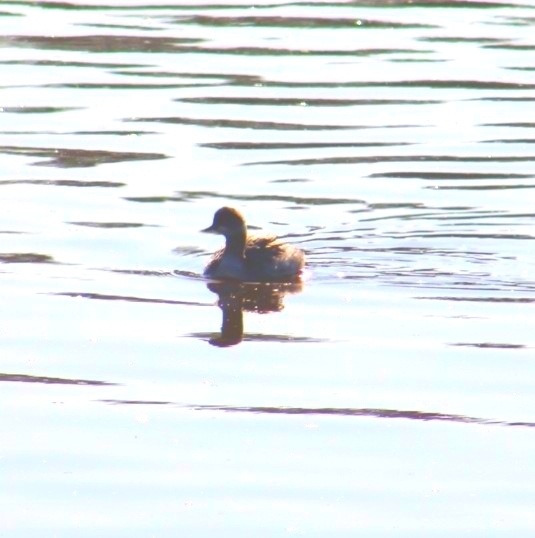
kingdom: Animalia
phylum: Chordata
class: Aves
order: Podicipediformes
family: Podicipedidae
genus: Podiceps
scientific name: Podiceps nigricollis
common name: Black-necked grebe
